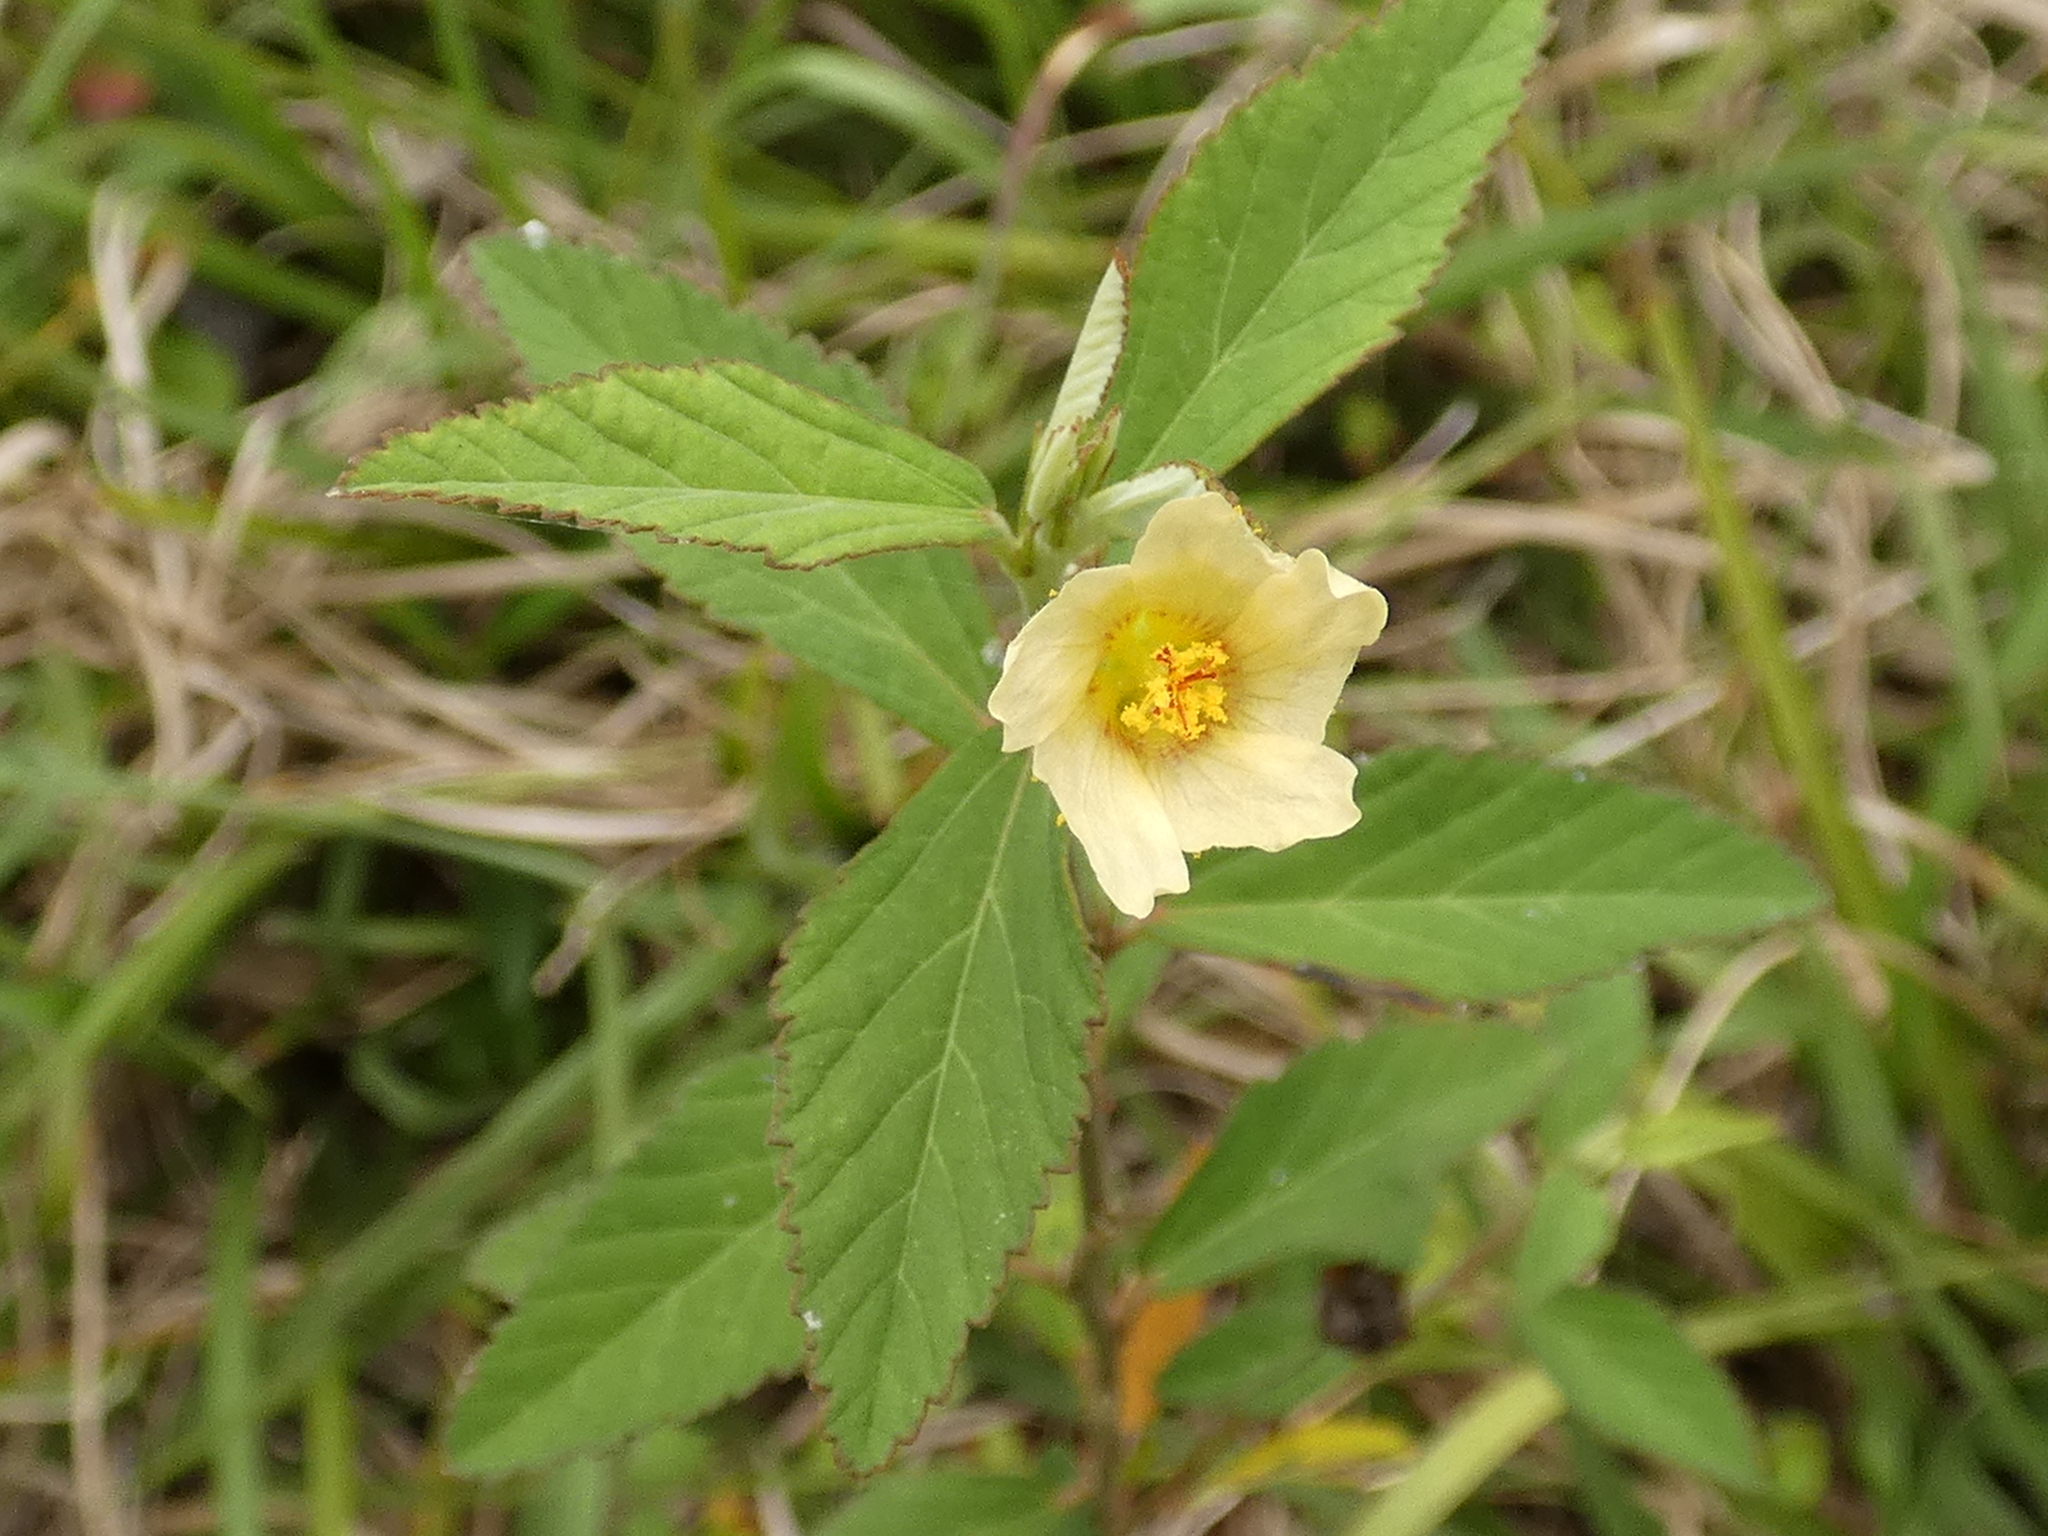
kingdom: Plantae
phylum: Tracheophyta
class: Magnoliopsida
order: Malvales
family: Malvaceae
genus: Sida
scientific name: Sida rhombifolia
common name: Queensland-hemp
